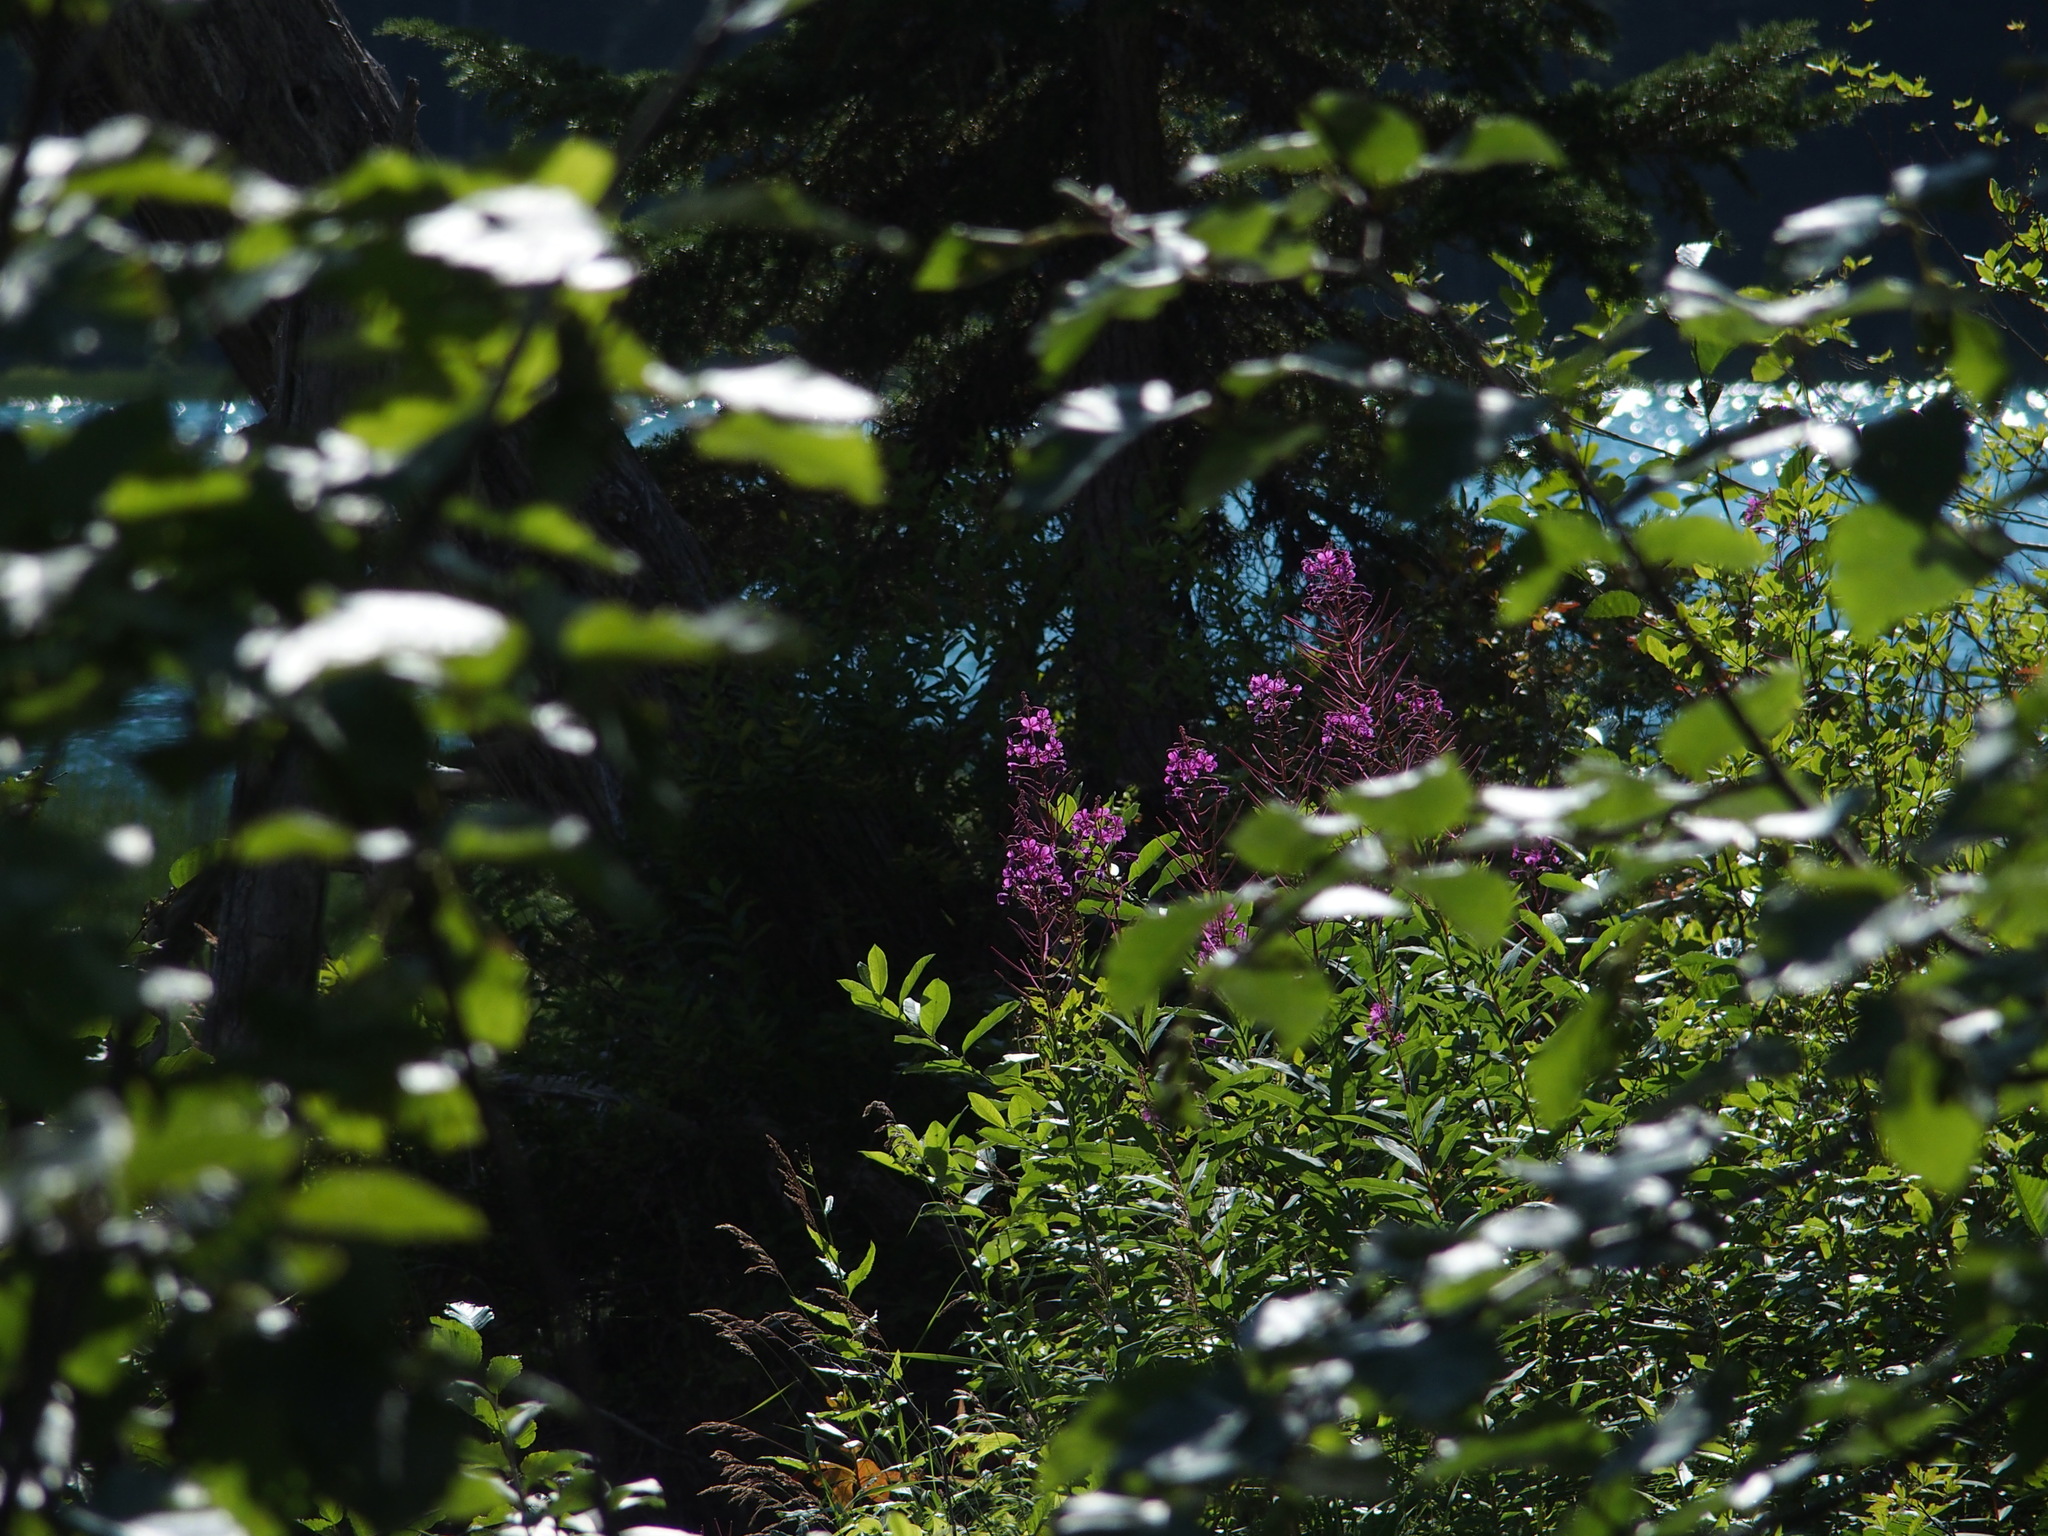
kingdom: Plantae
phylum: Tracheophyta
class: Magnoliopsida
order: Myrtales
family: Onagraceae
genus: Chamaenerion
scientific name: Chamaenerion angustifolium
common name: Fireweed
